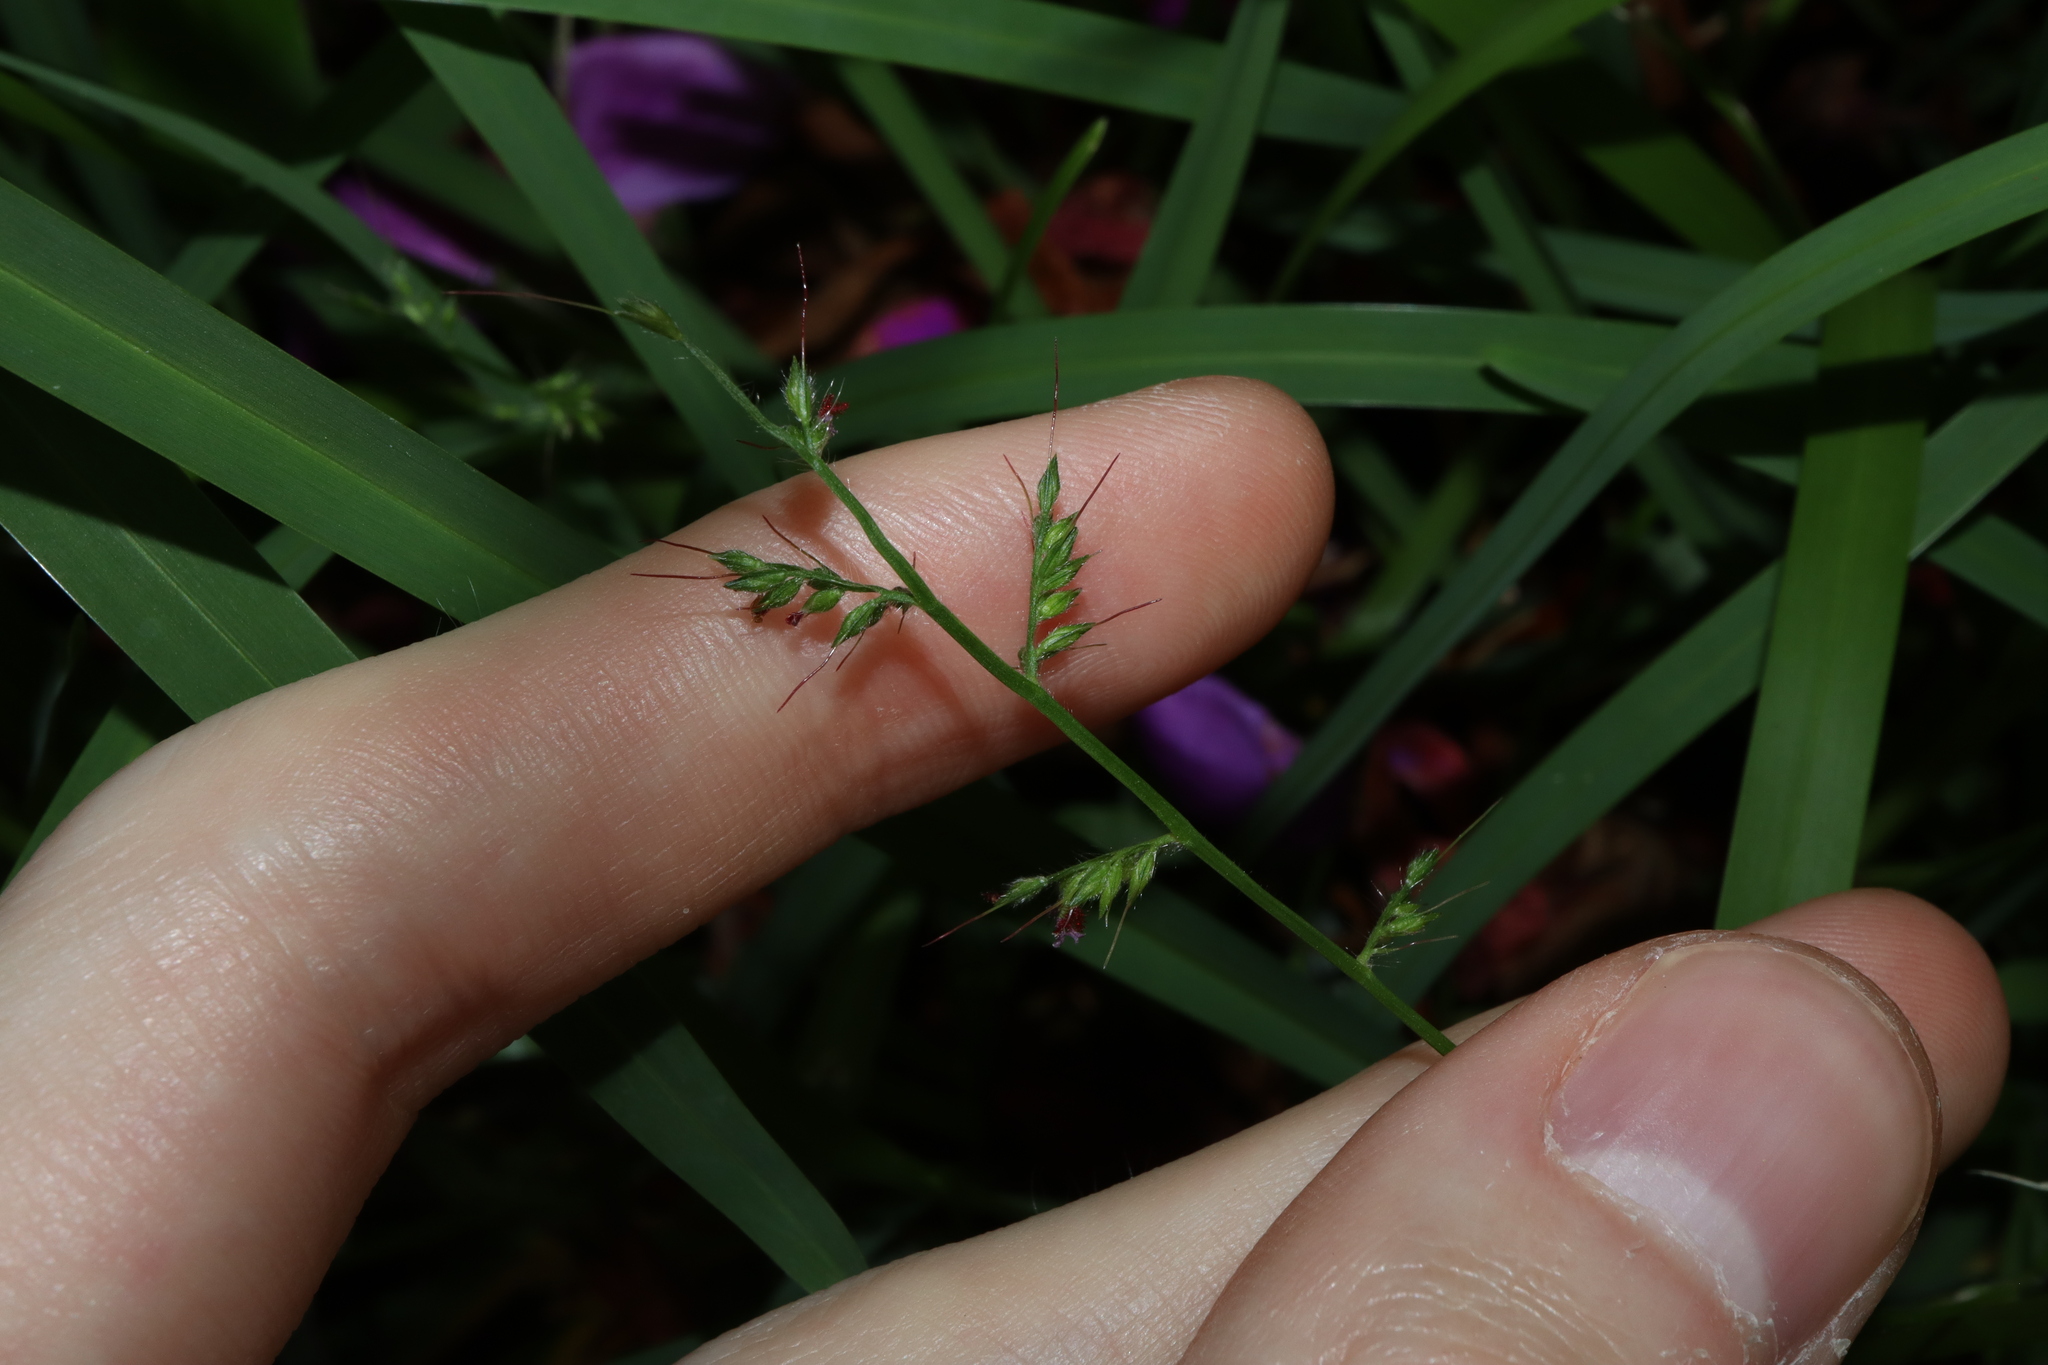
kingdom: Plantae
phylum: Tracheophyta
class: Liliopsida
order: Poales
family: Poaceae
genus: Oplismenus
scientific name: Oplismenus hirtellus
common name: Basketgrass
